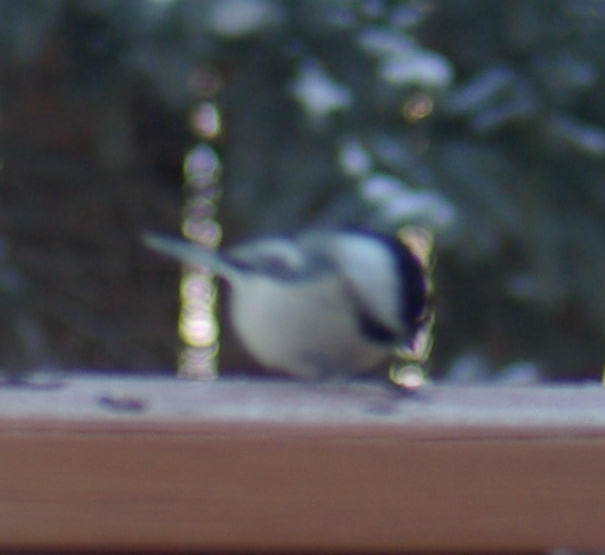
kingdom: Animalia
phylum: Chordata
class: Aves
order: Passeriformes
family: Paridae
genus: Poecile
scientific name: Poecile atricapillus
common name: Black-capped chickadee
